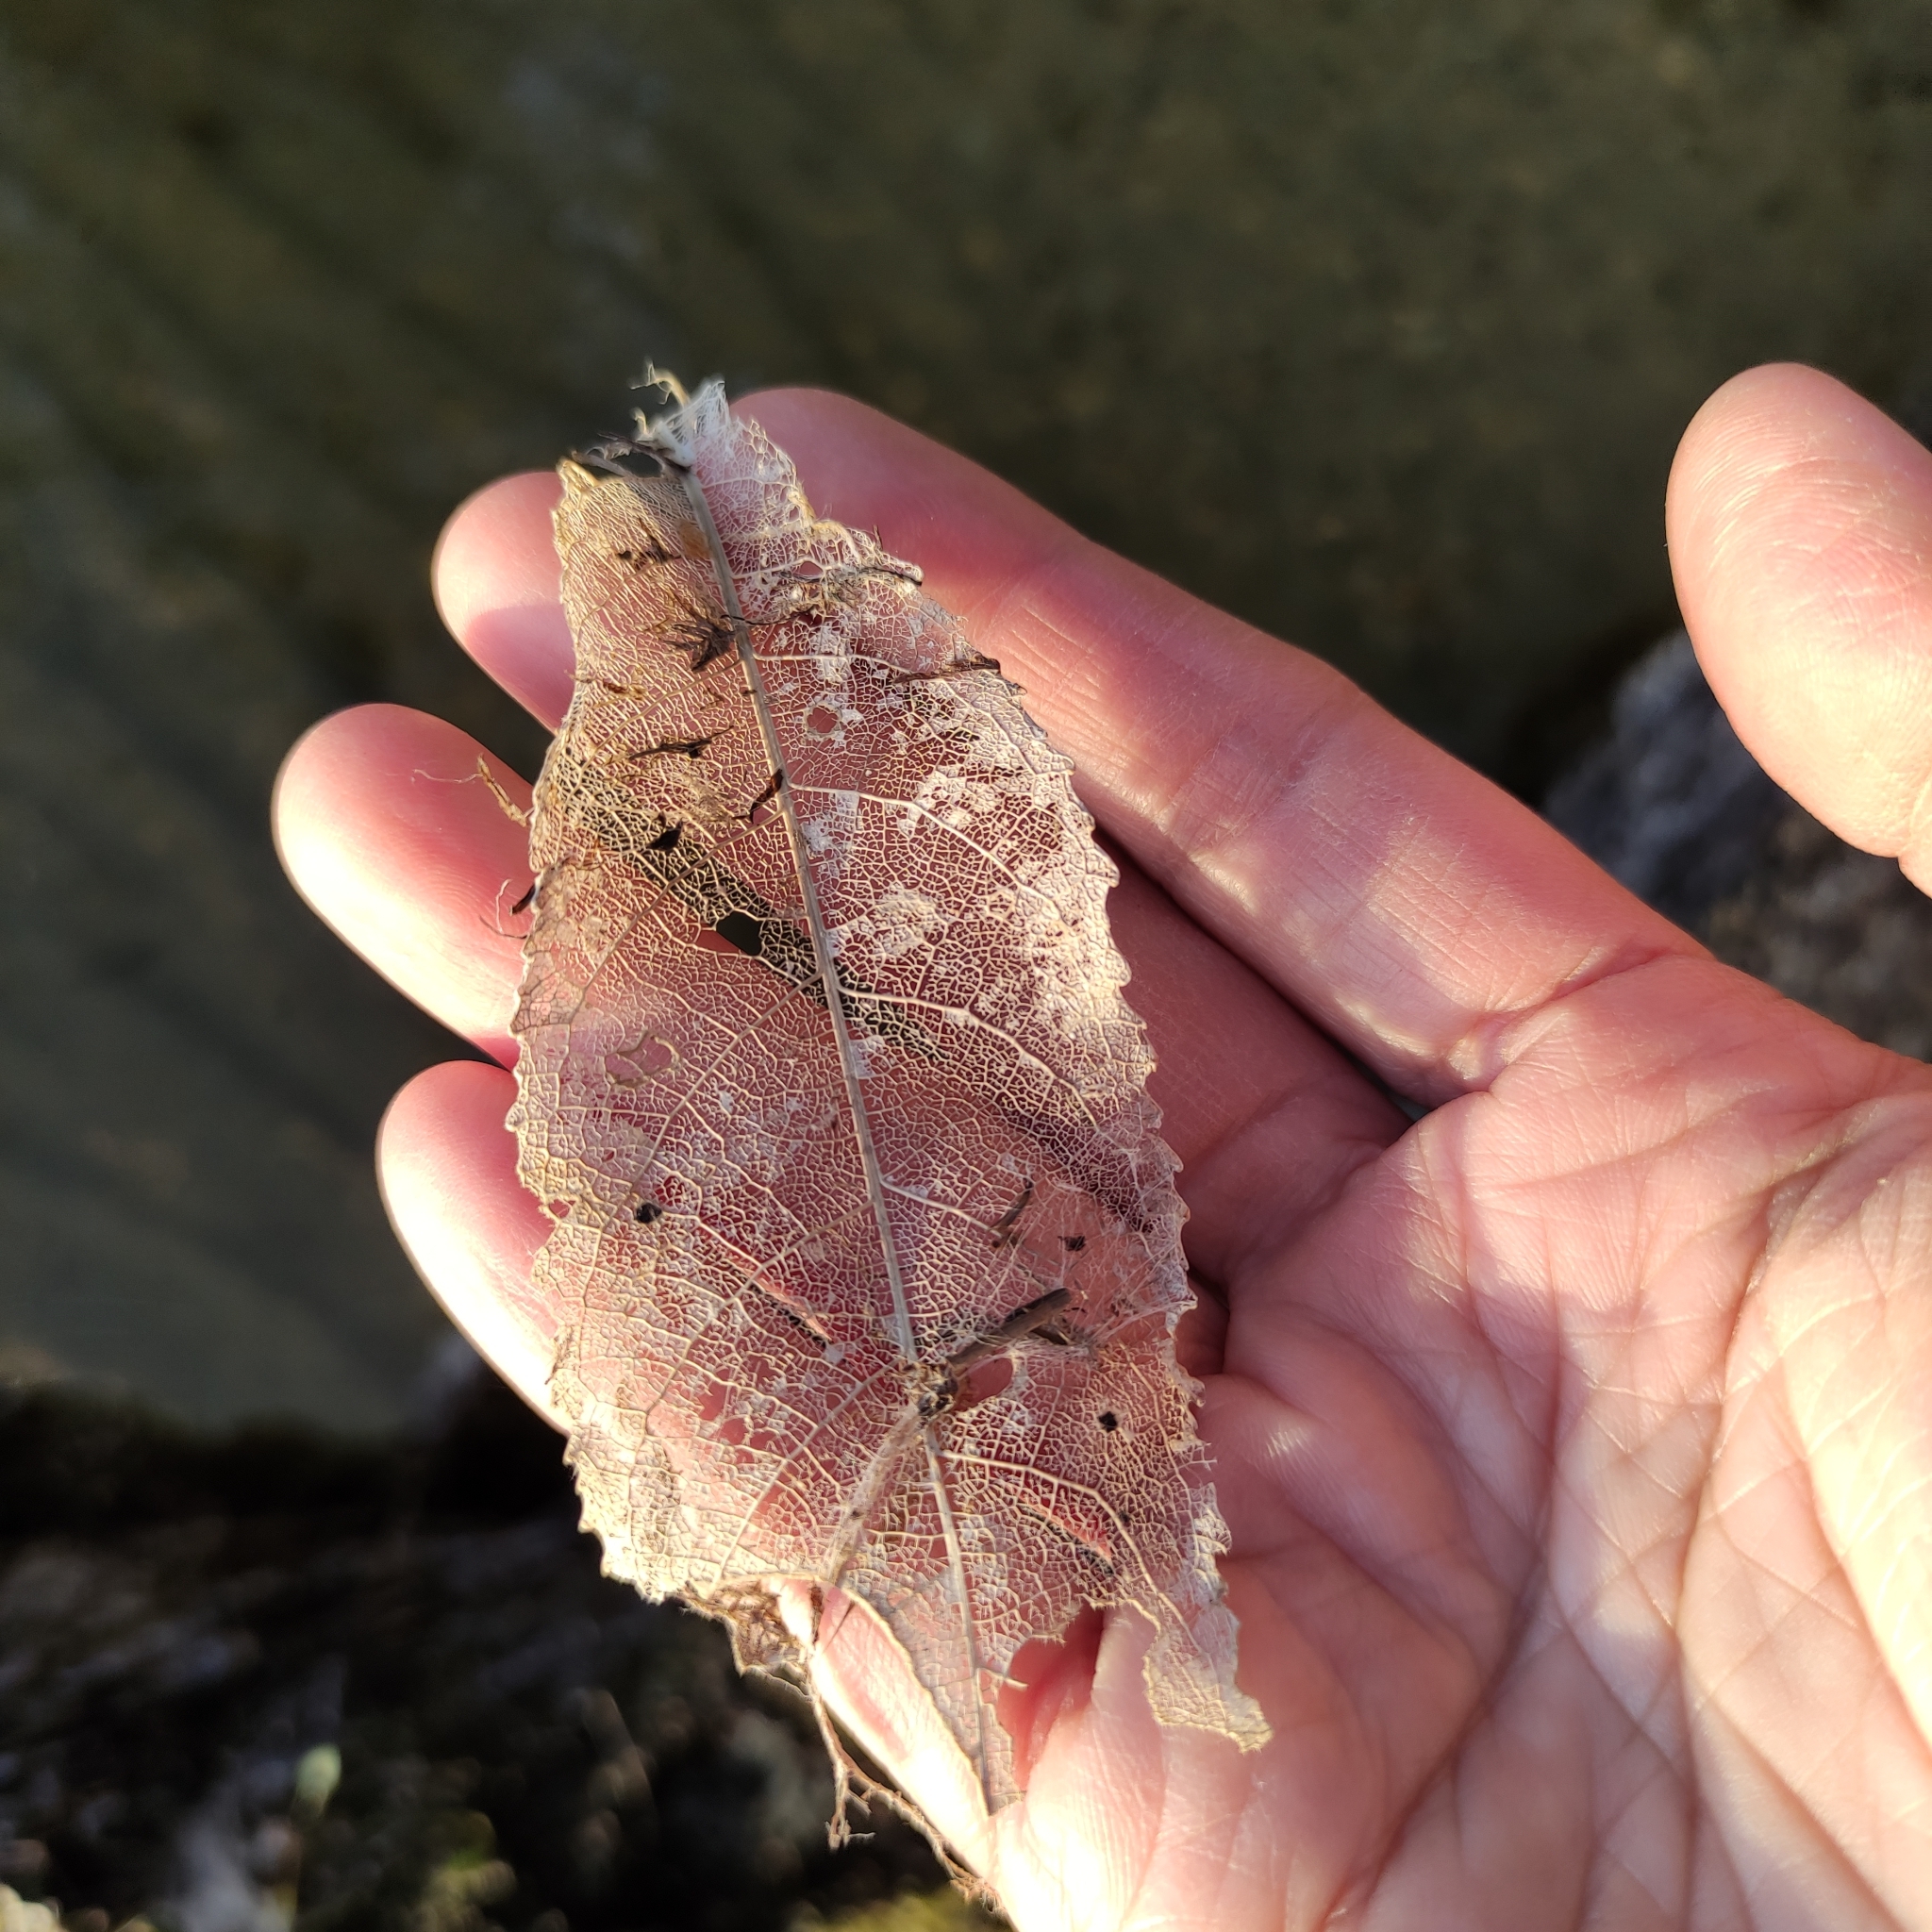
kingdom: Plantae
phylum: Tracheophyta
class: Magnoliopsida
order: Malpighiales
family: Violaceae
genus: Melicytus
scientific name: Melicytus ramiflorus
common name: Mahoe
